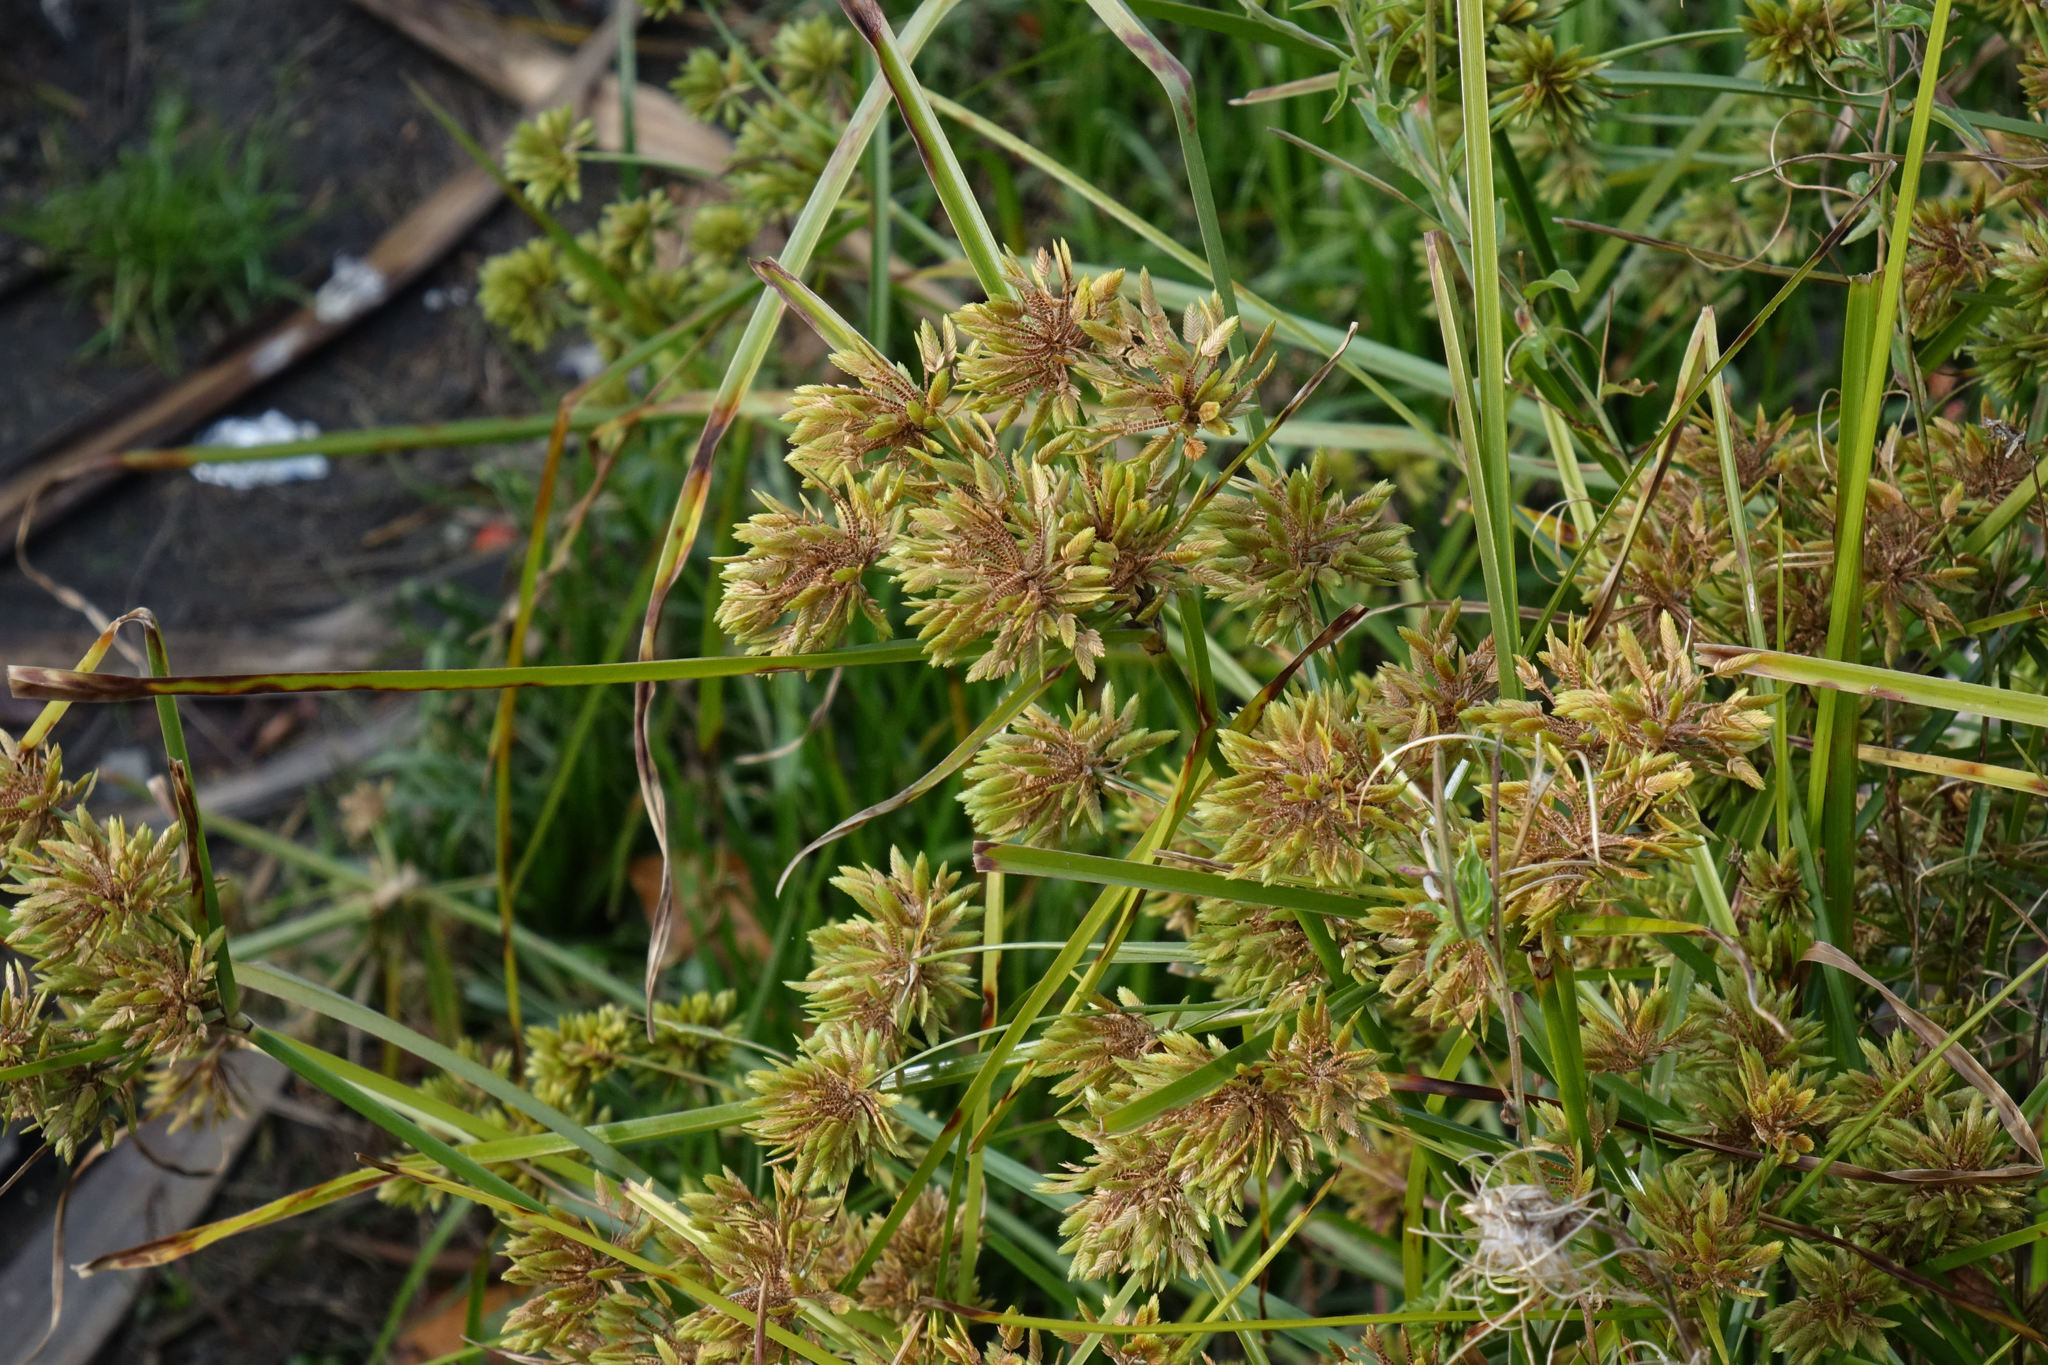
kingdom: Plantae
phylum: Tracheophyta
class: Liliopsida
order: Poales
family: Cyperaceae
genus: Cyperus
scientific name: Cyperus eragrostis
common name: Tall flatsedge
